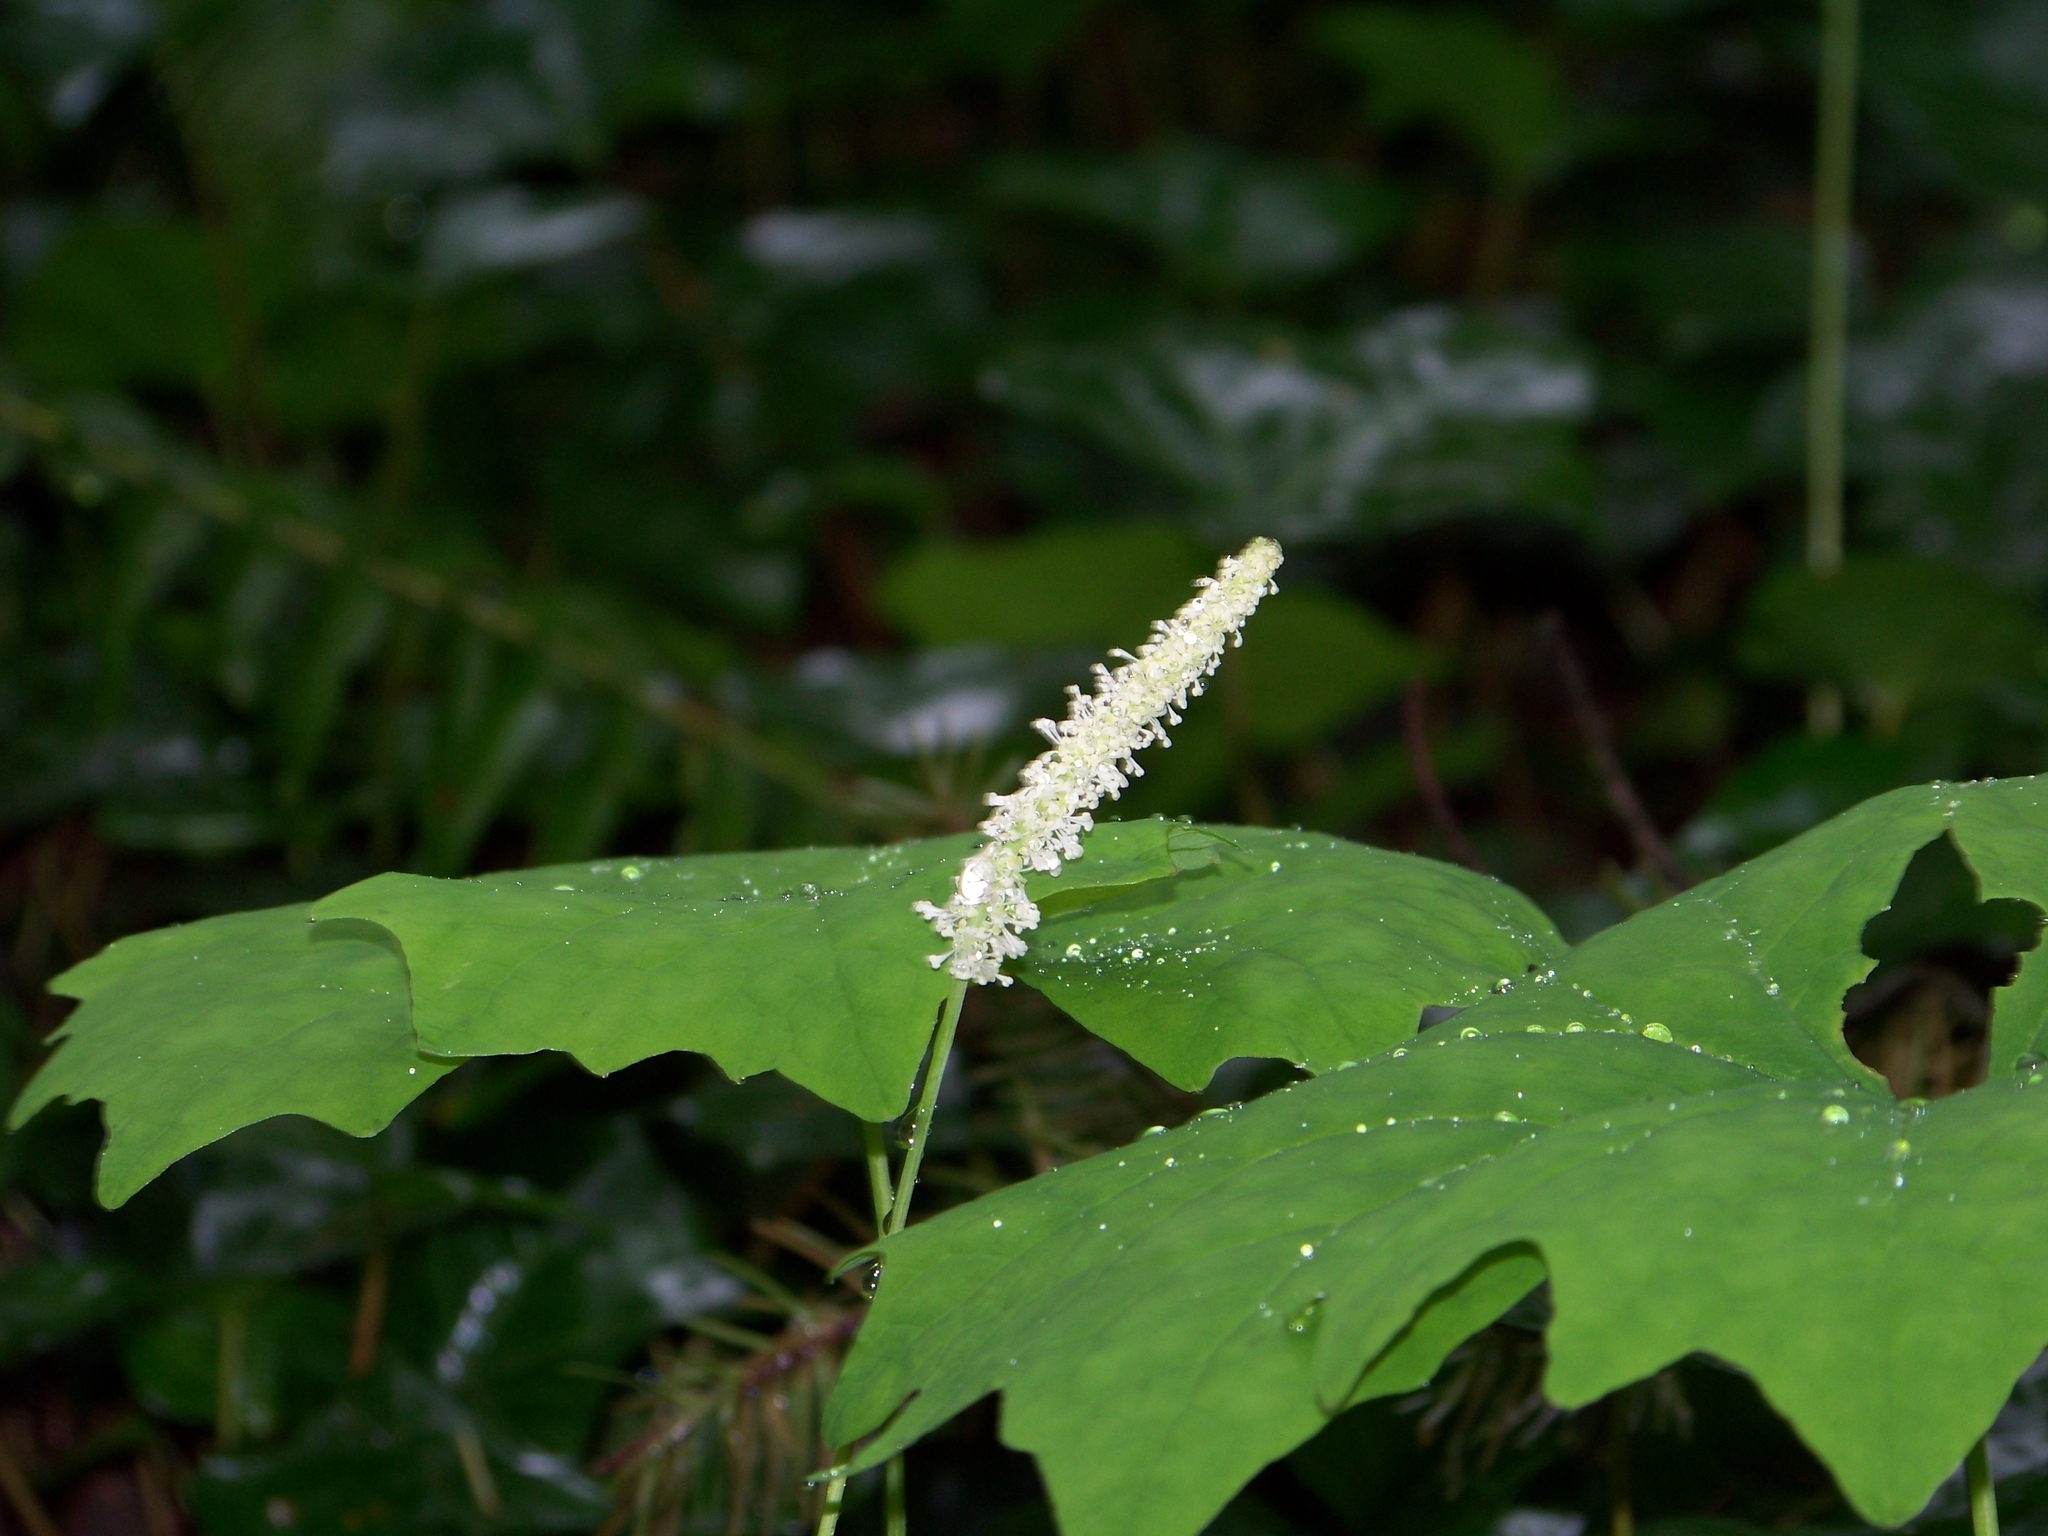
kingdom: Plantae
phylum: Tracheophyta
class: Magnoliopsida
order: Ranunculales
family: Berberidaceae
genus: Achlys
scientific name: Achlys triphylla
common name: Vanilla-leaf
